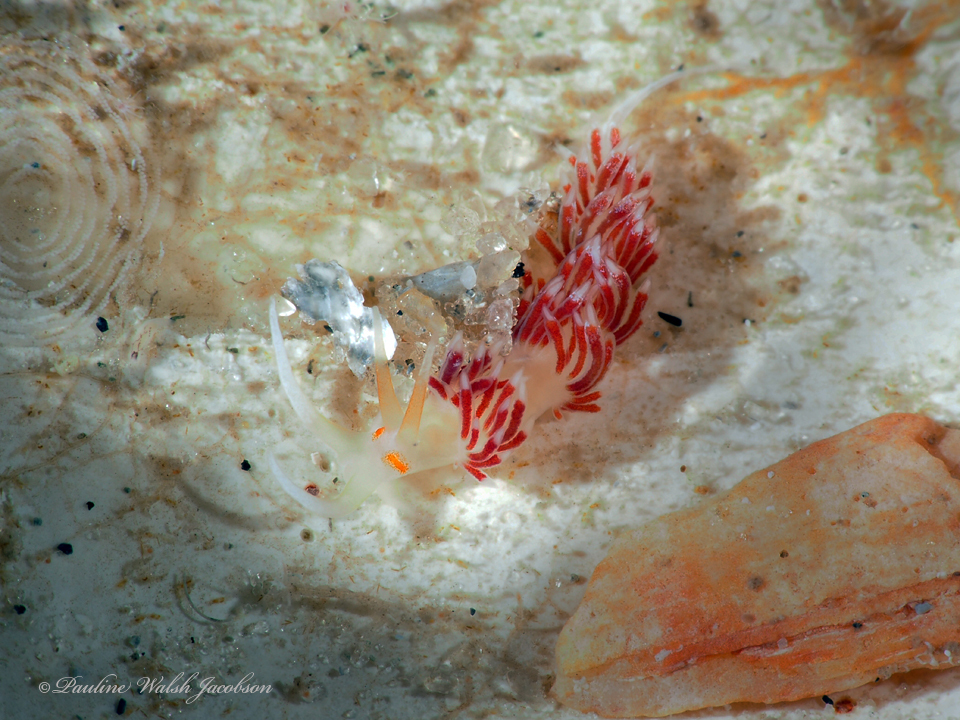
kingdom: Animalia
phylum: Mollusca
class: Gastropoda
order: Nudibranchia
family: Facelinidae
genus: Cratena
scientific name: Cratena minor
